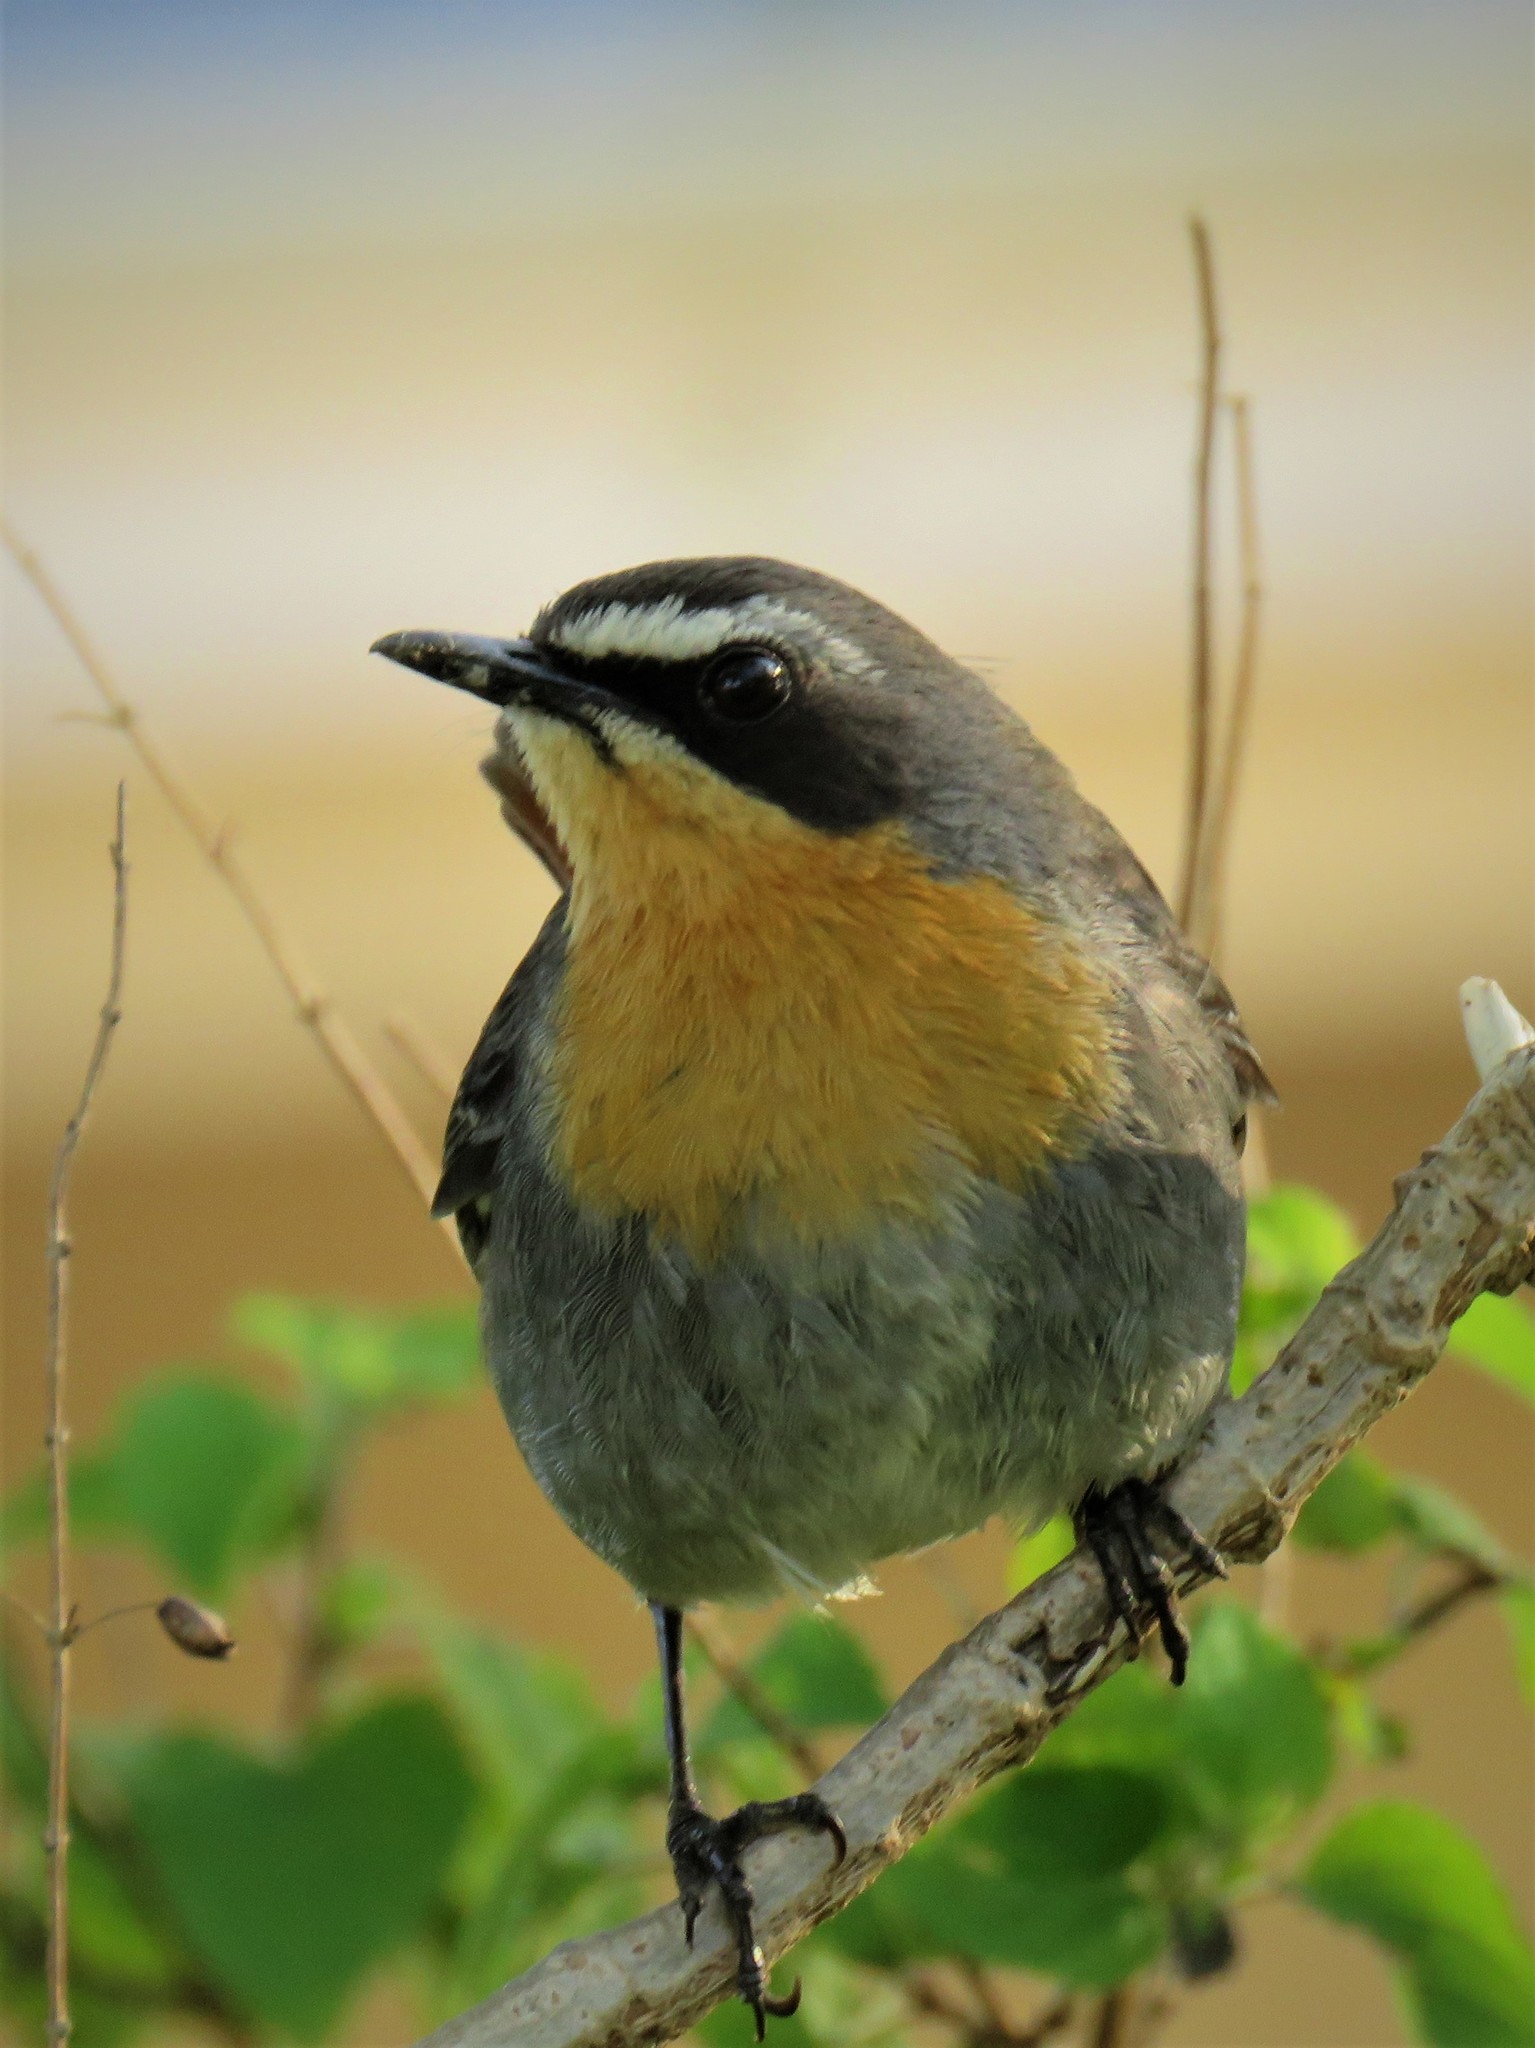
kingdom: Animalia
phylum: Chordata
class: Aves
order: Passeriformes
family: Muscicapidae
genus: Cossypha
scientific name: Cossypha caffra
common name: Cape robin-chat
